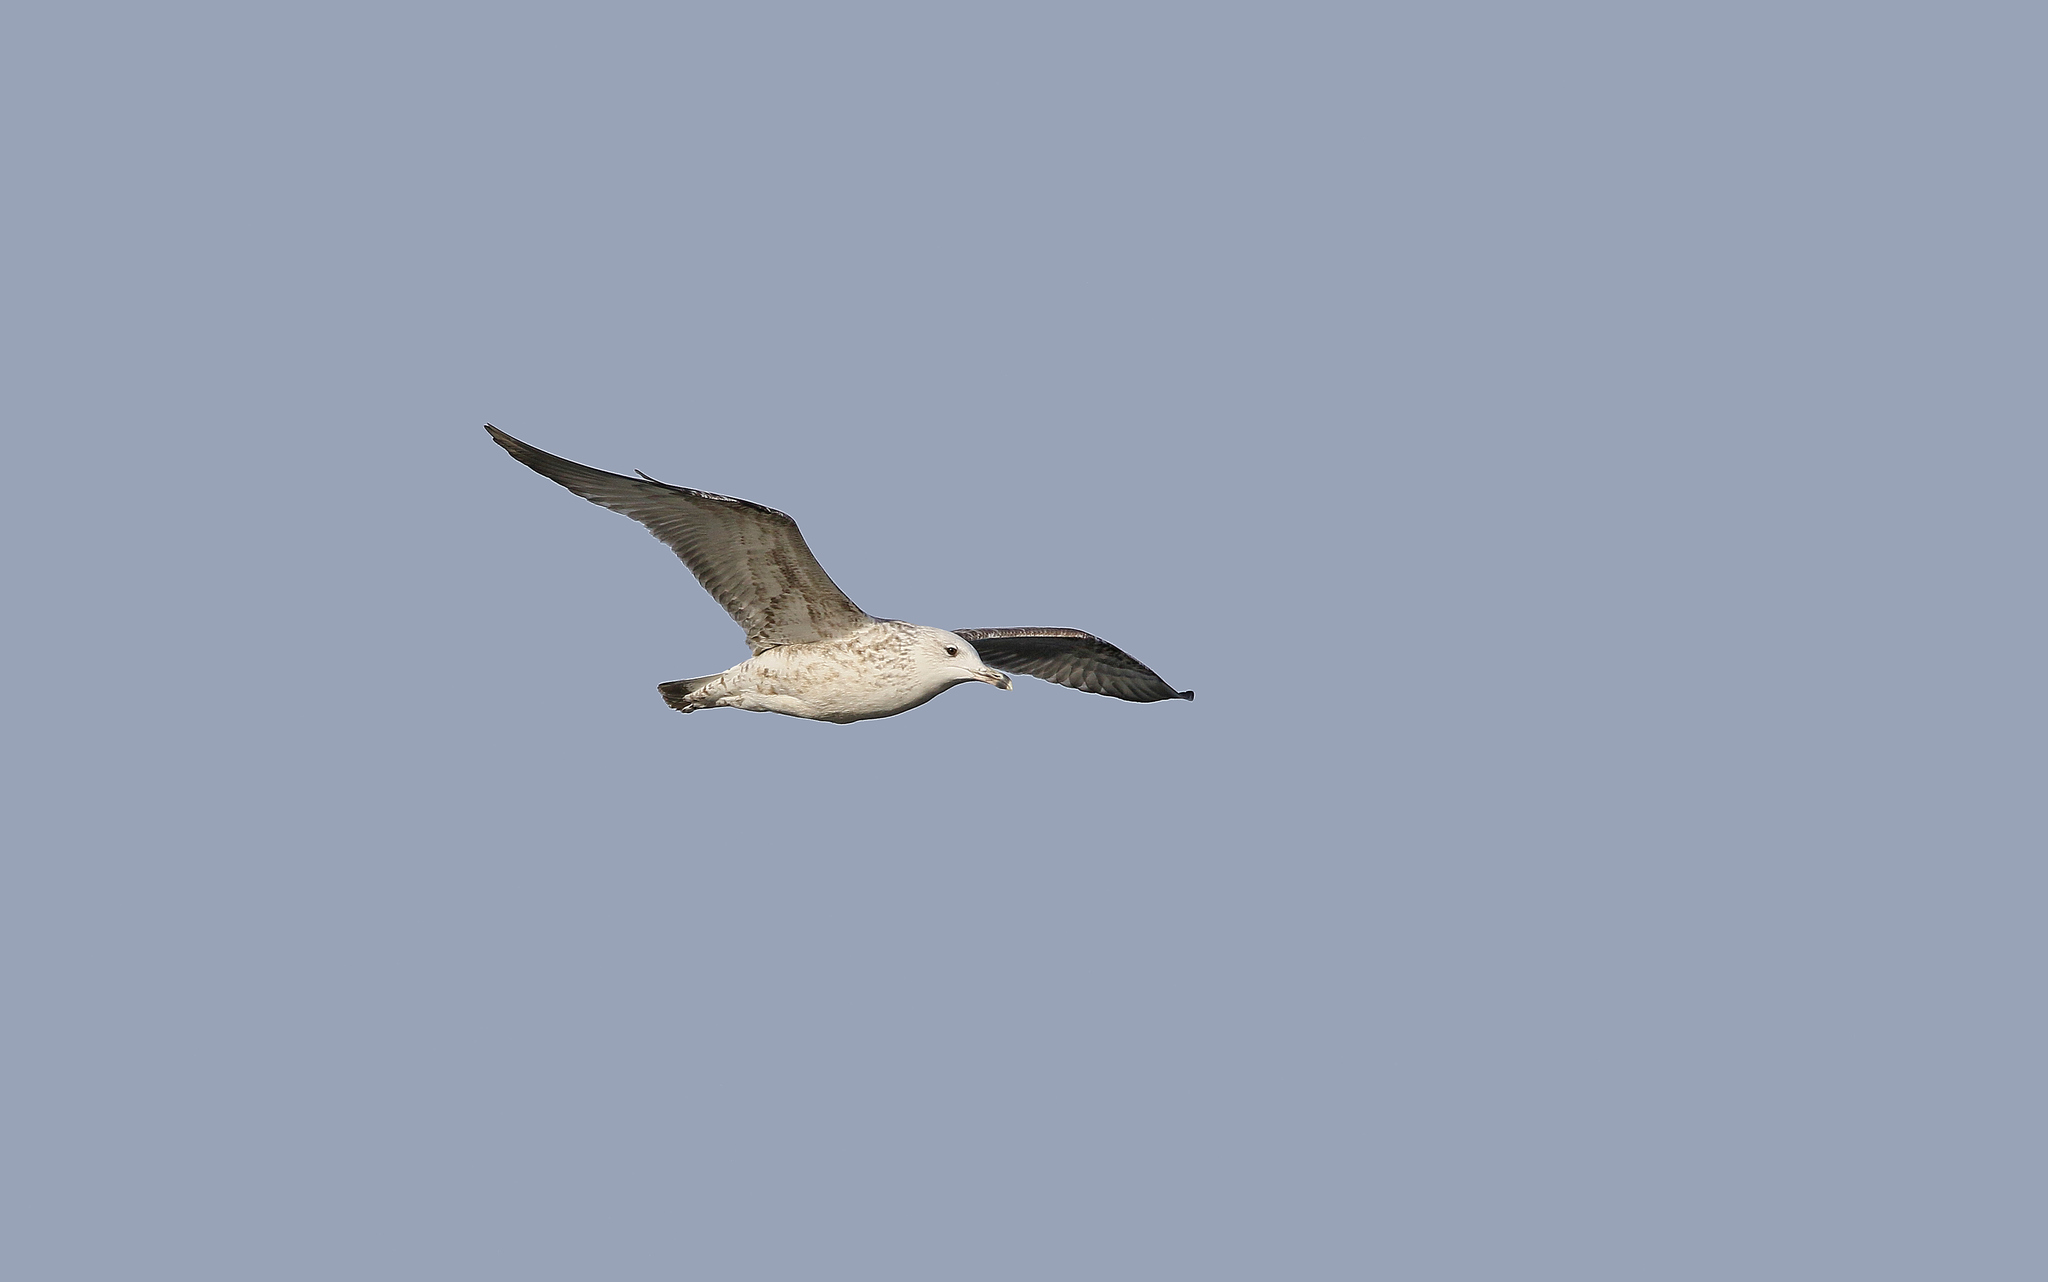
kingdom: Animalia
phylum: Chordata
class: Aves
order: Charadriiformes
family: Laridae
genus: Larus
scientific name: Larus michahellis
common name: Yellow-legged gull
